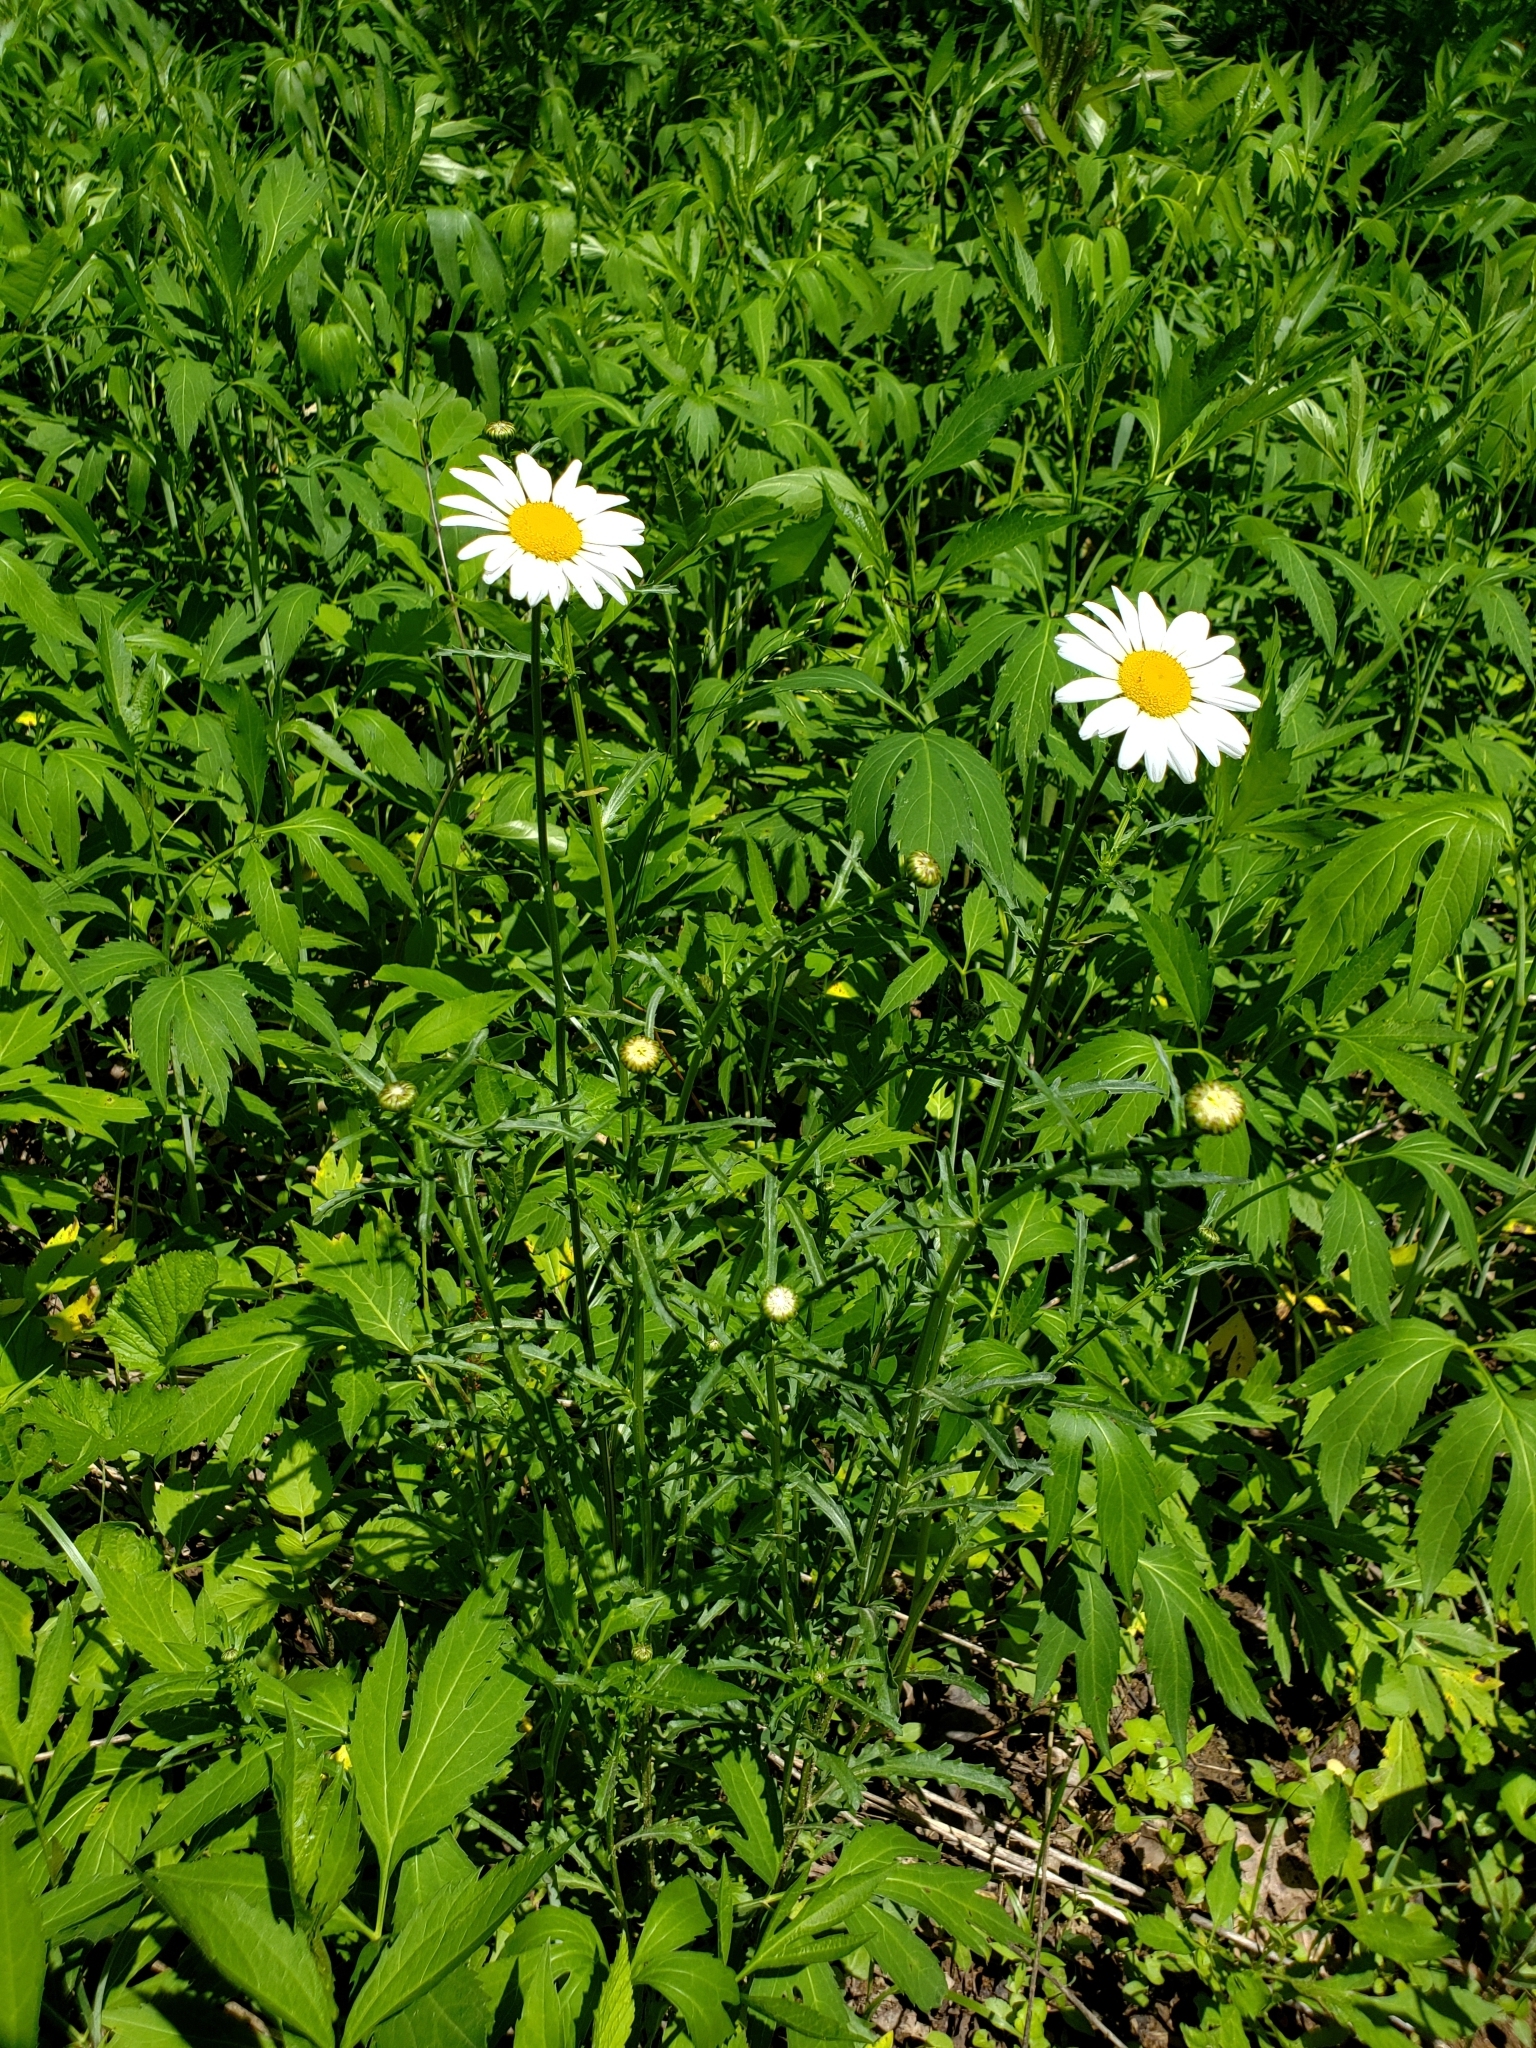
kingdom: Plantae
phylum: Tracheophyta
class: Magnoliopsida
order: Asterales
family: Asteraceae
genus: Leucanthemum
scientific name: Leucanthemum vulgare
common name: Oxeye daisy
